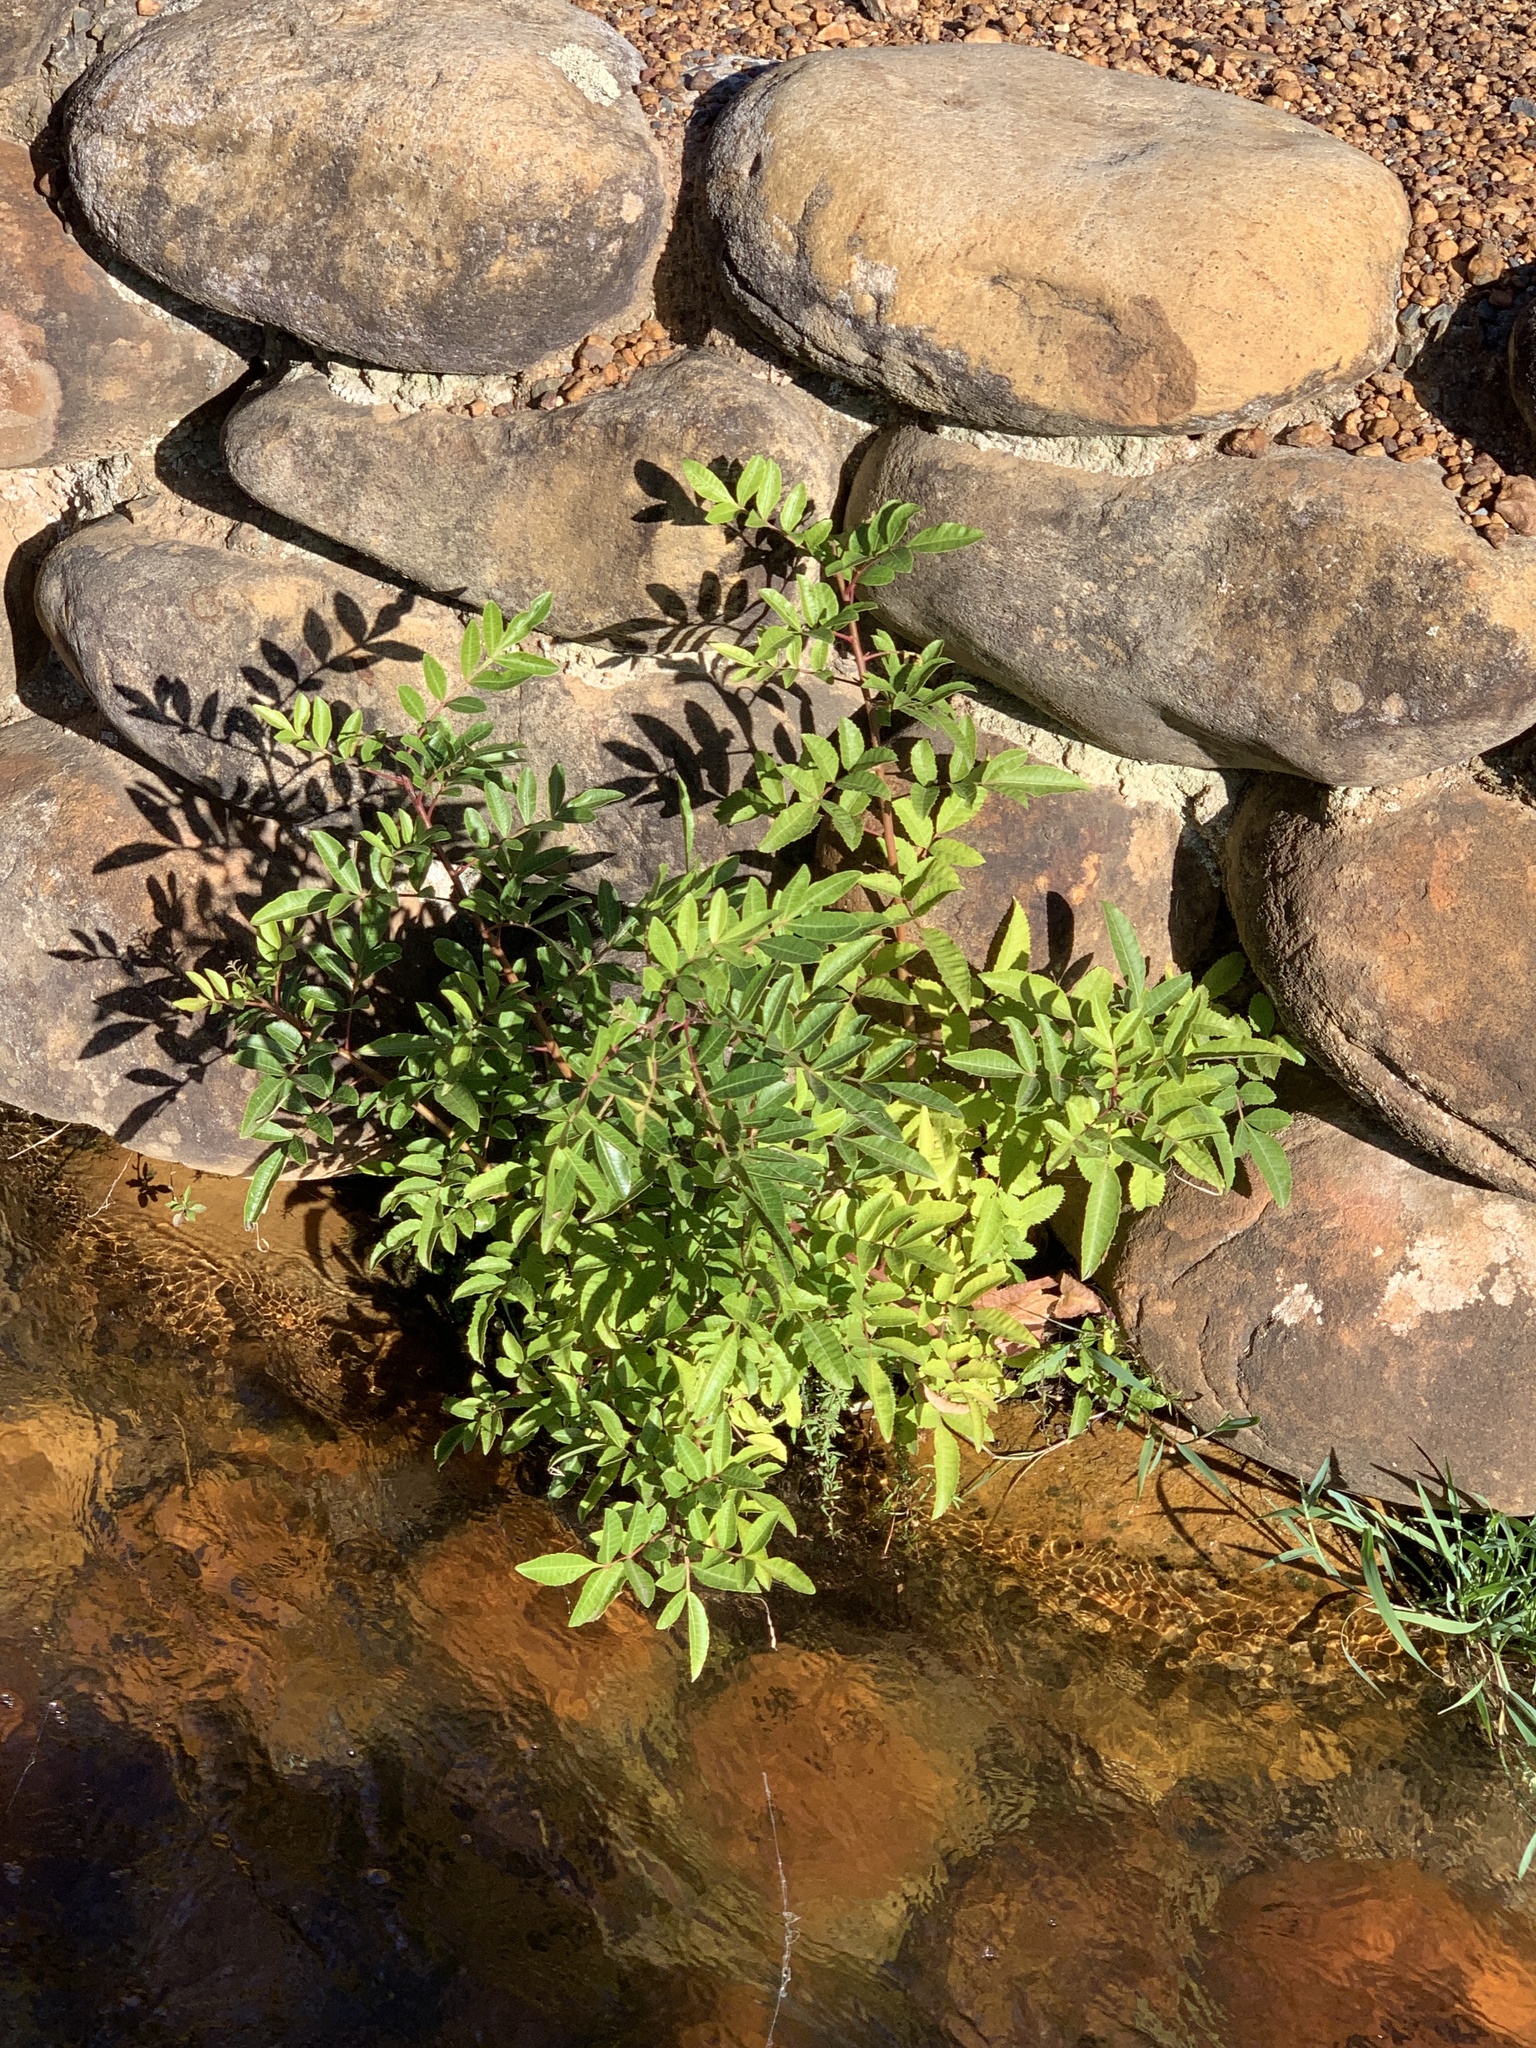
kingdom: Plantae
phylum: Tracheophyta
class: Magnoliopsida
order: Sapindales
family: Anacardiaceae
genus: Schinus
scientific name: Schinus terebinthifolia
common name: Brazilian peppertree
